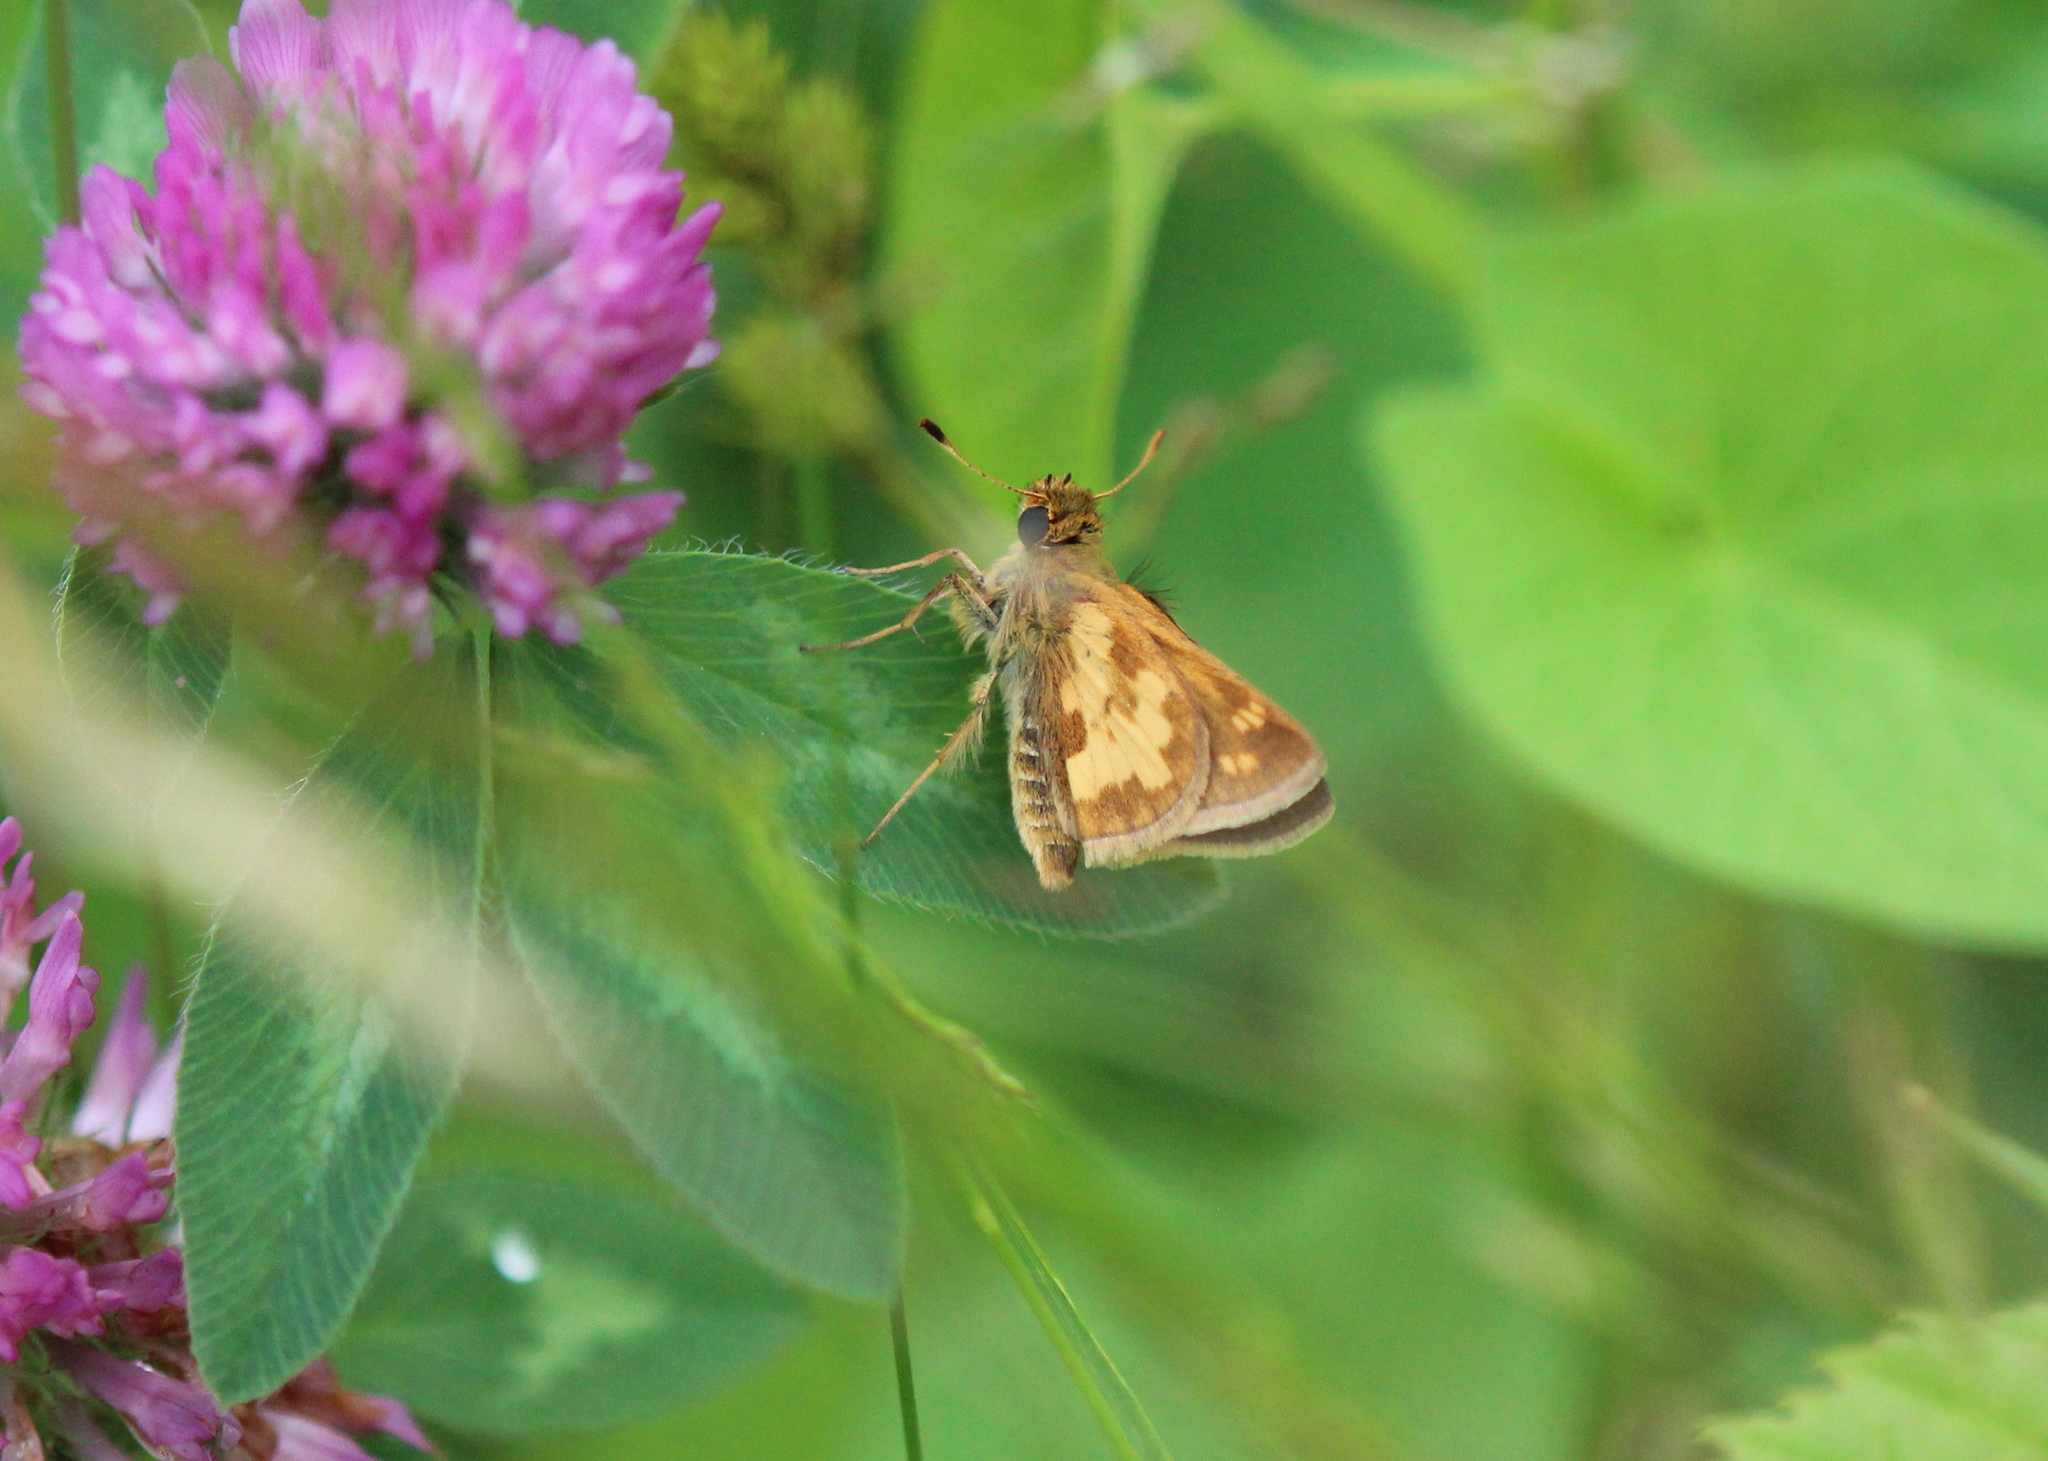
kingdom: Animalia
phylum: Arthropoda
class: Insecta
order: Lepidoptera
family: Hesperiidae
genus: Polites
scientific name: Polites coras
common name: Peck's skipper
